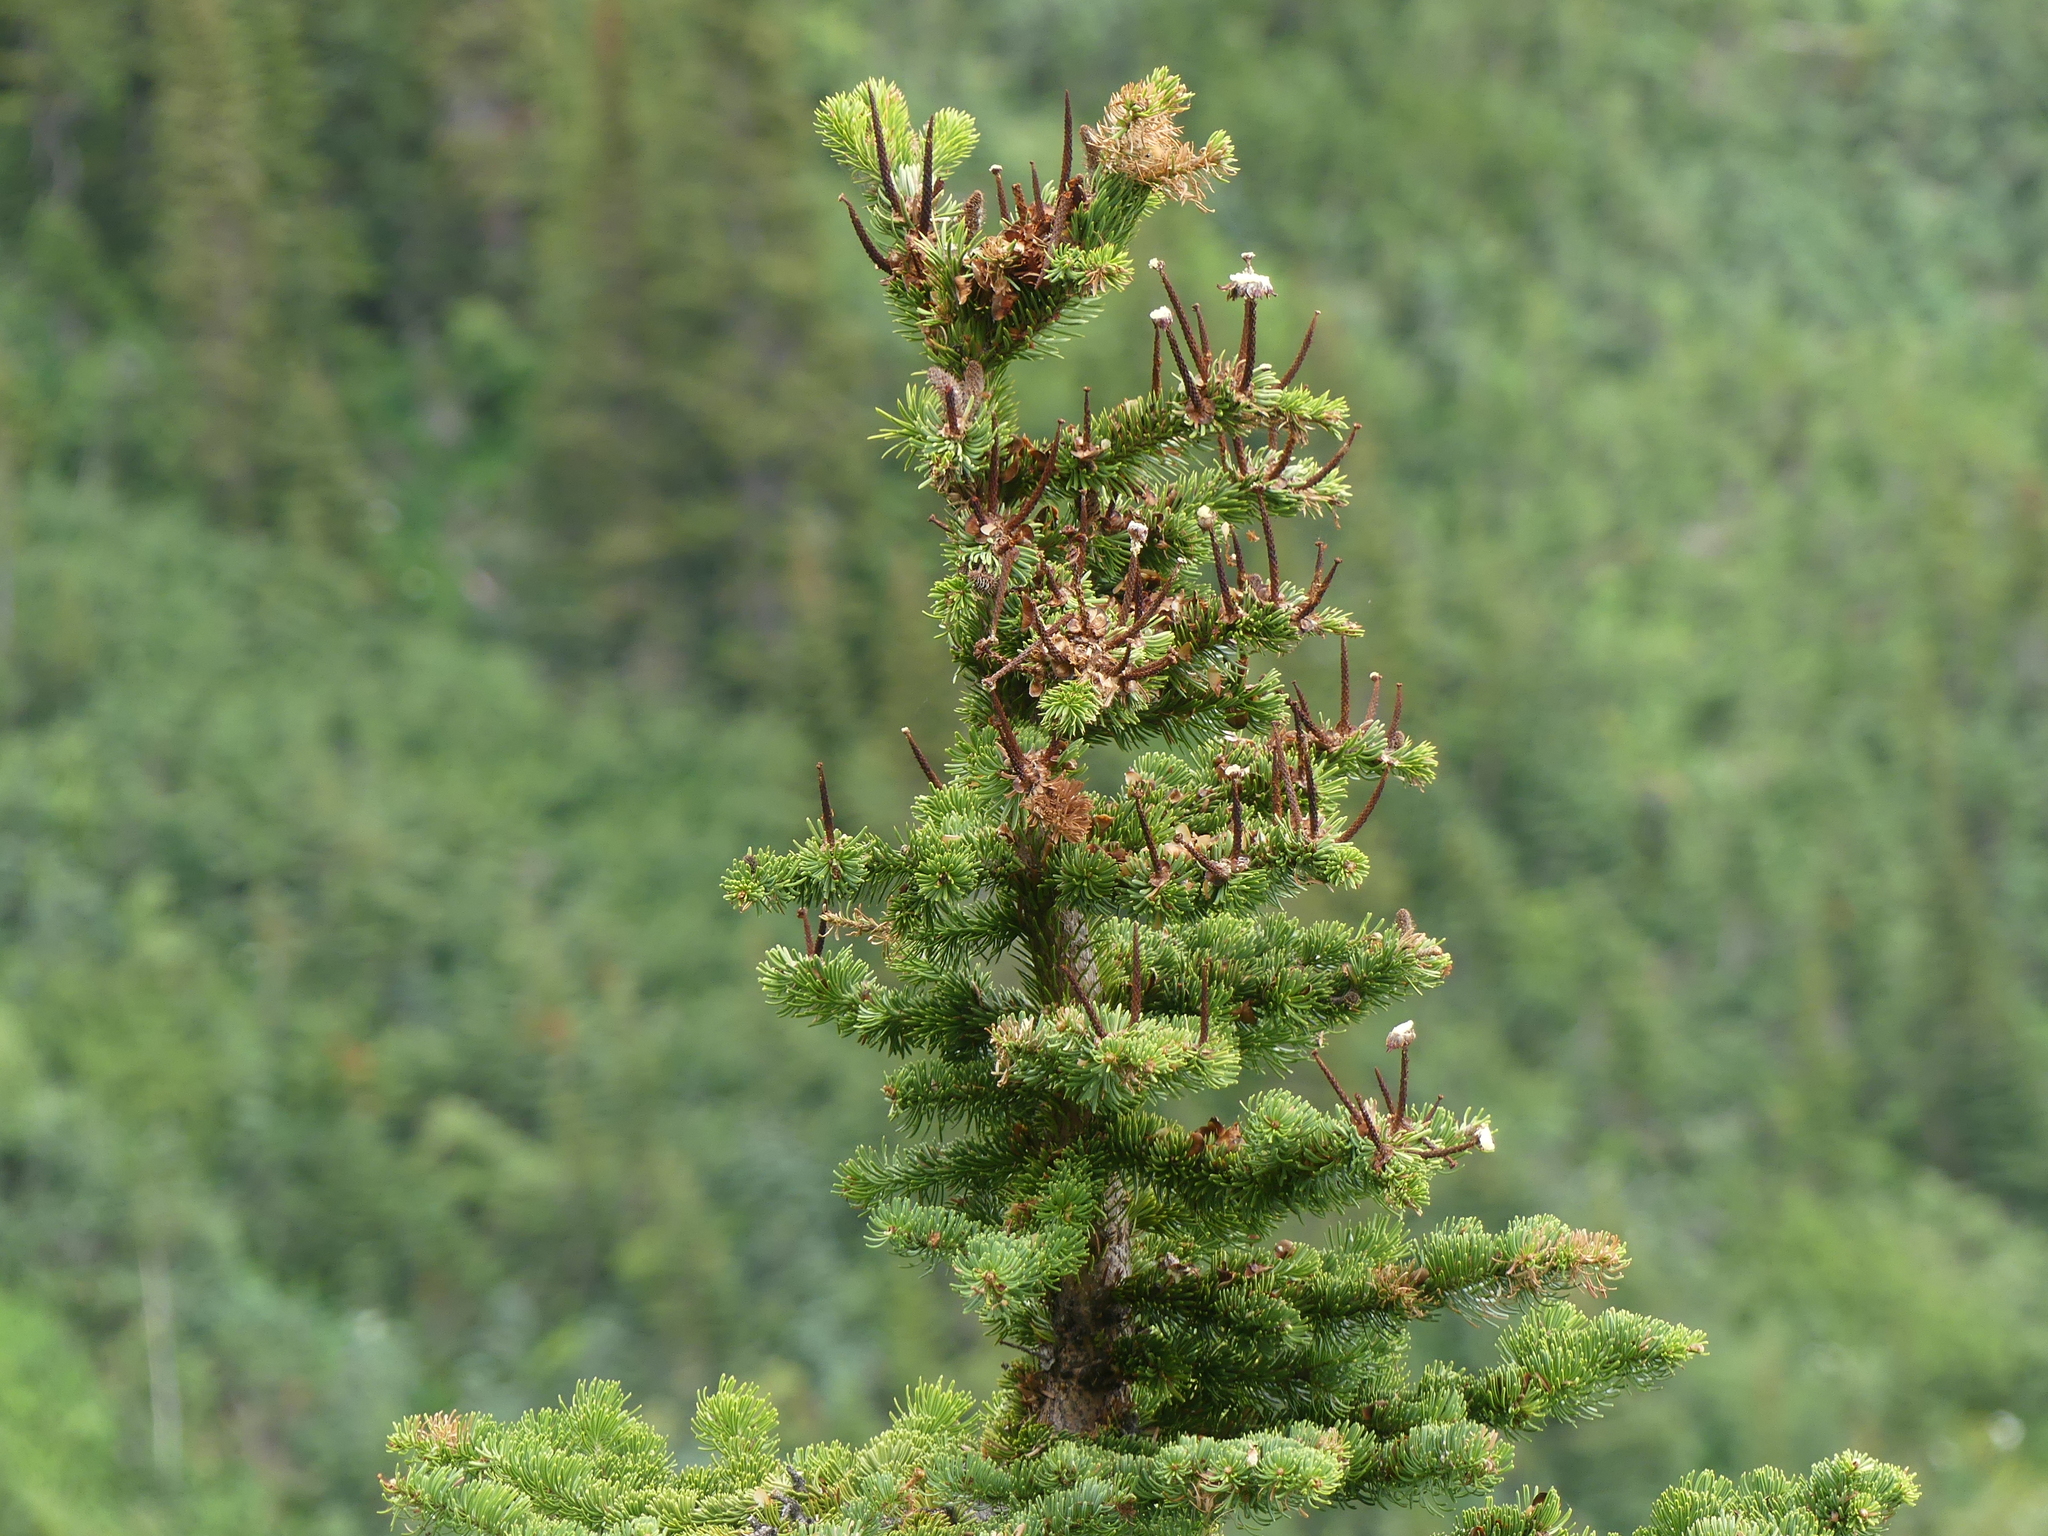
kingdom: Plantae
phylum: Tracheophyta
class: Pinopsida
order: Pinales
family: Pinaceae
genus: Abies
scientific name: Abies lasiocarpa
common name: Subalpine fir
